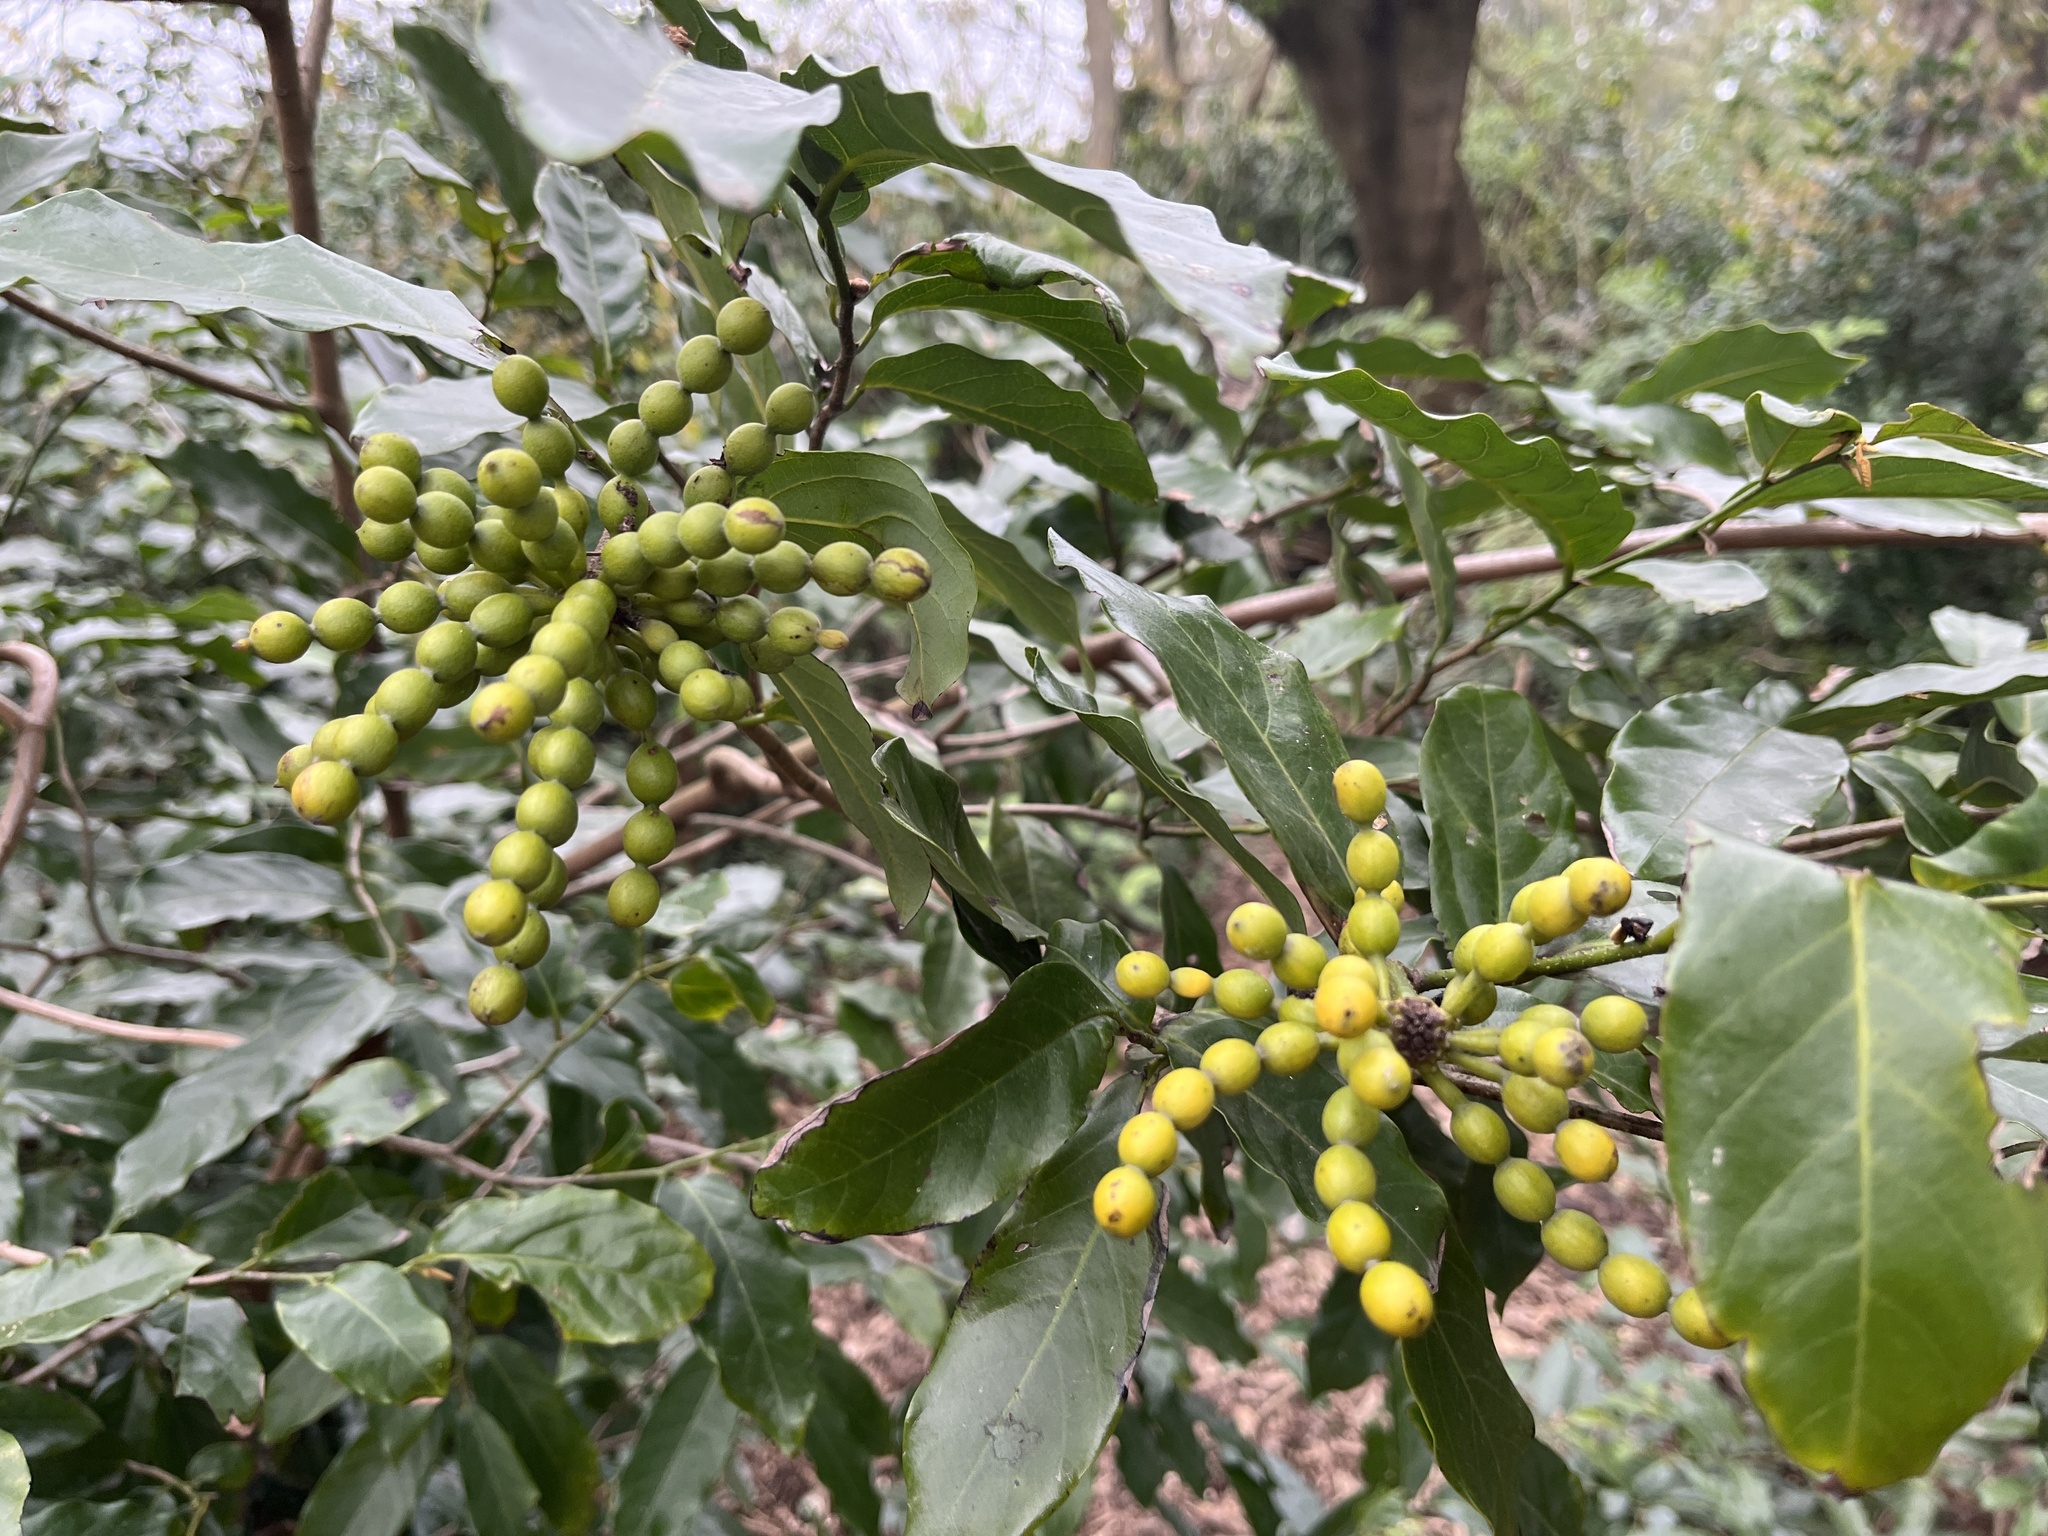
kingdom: Plantae
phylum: Tracheophyta
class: Magnoliopsida
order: Magnoliales
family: Annonaceae
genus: Desmos
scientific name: Desmos chinensis
